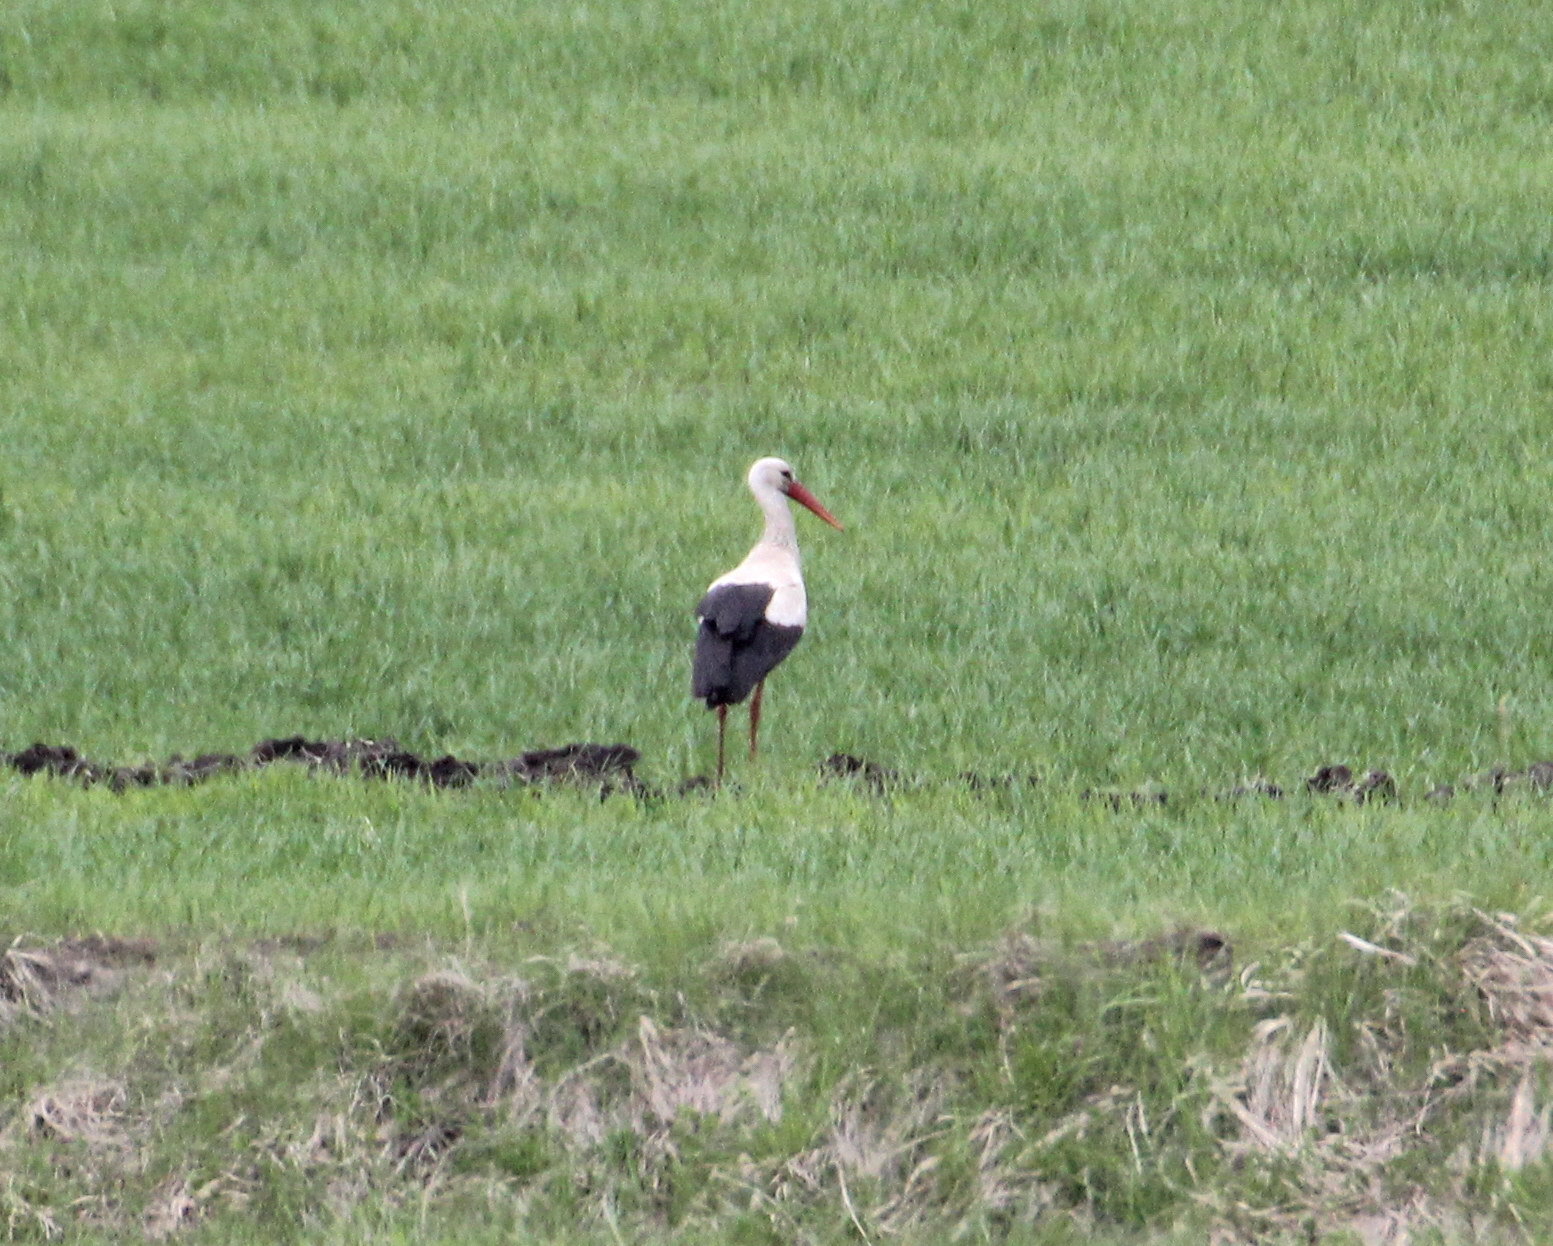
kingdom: Animalia
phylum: Chordata
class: Aves
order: Ciconiiformes
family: Ciconiidae
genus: Ciconia
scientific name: Ciconia ciconia
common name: White stork
